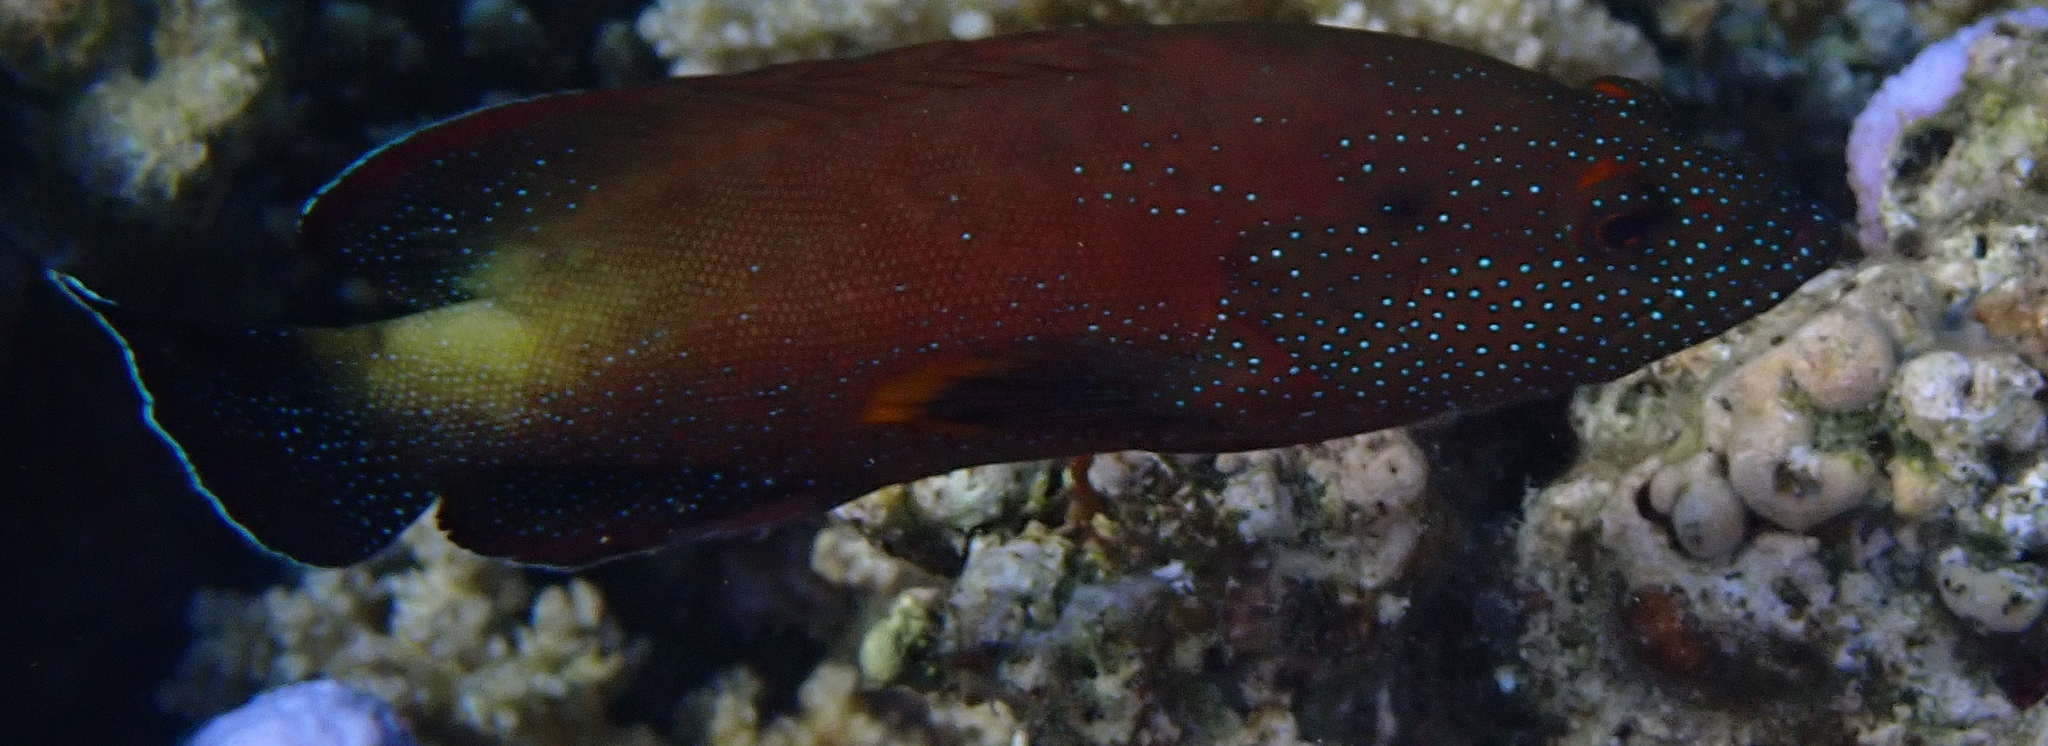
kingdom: Animalia
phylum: Chordata
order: Perciformes
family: Serranidae
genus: Cephalopholis
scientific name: Cephalopholis hemistiktos
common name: Halfspotted hind
